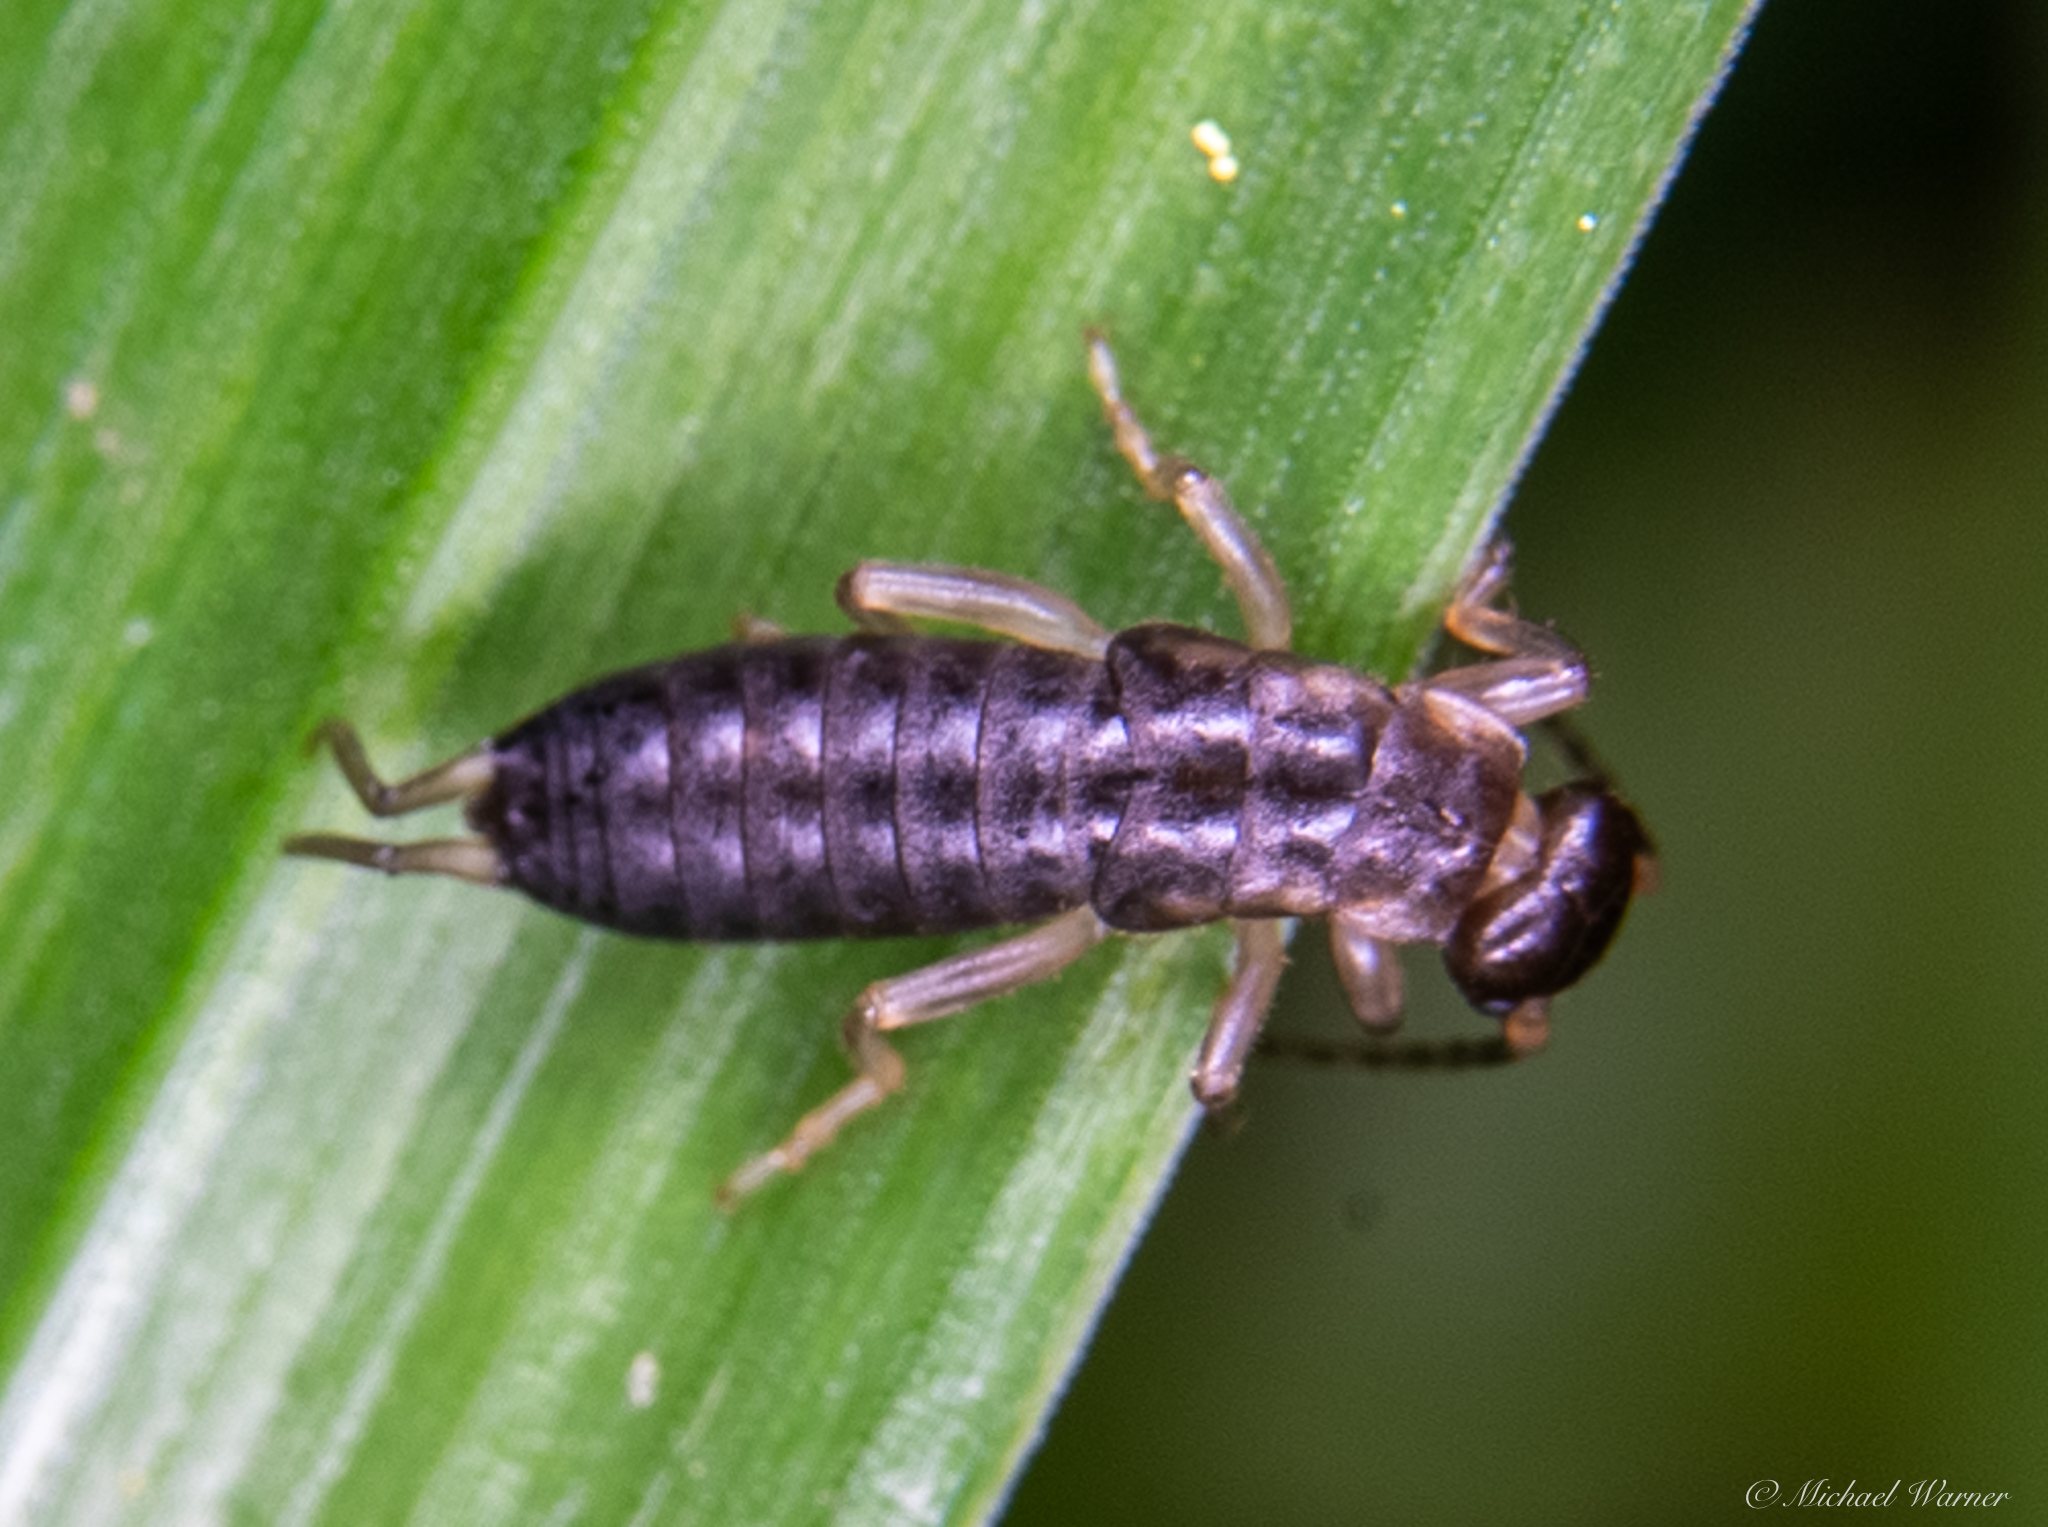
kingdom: Animalia
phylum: Arthropoda
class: Insecta
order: Dermaptera
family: Forficulidae
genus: Forficula
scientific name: Forficula dentata
